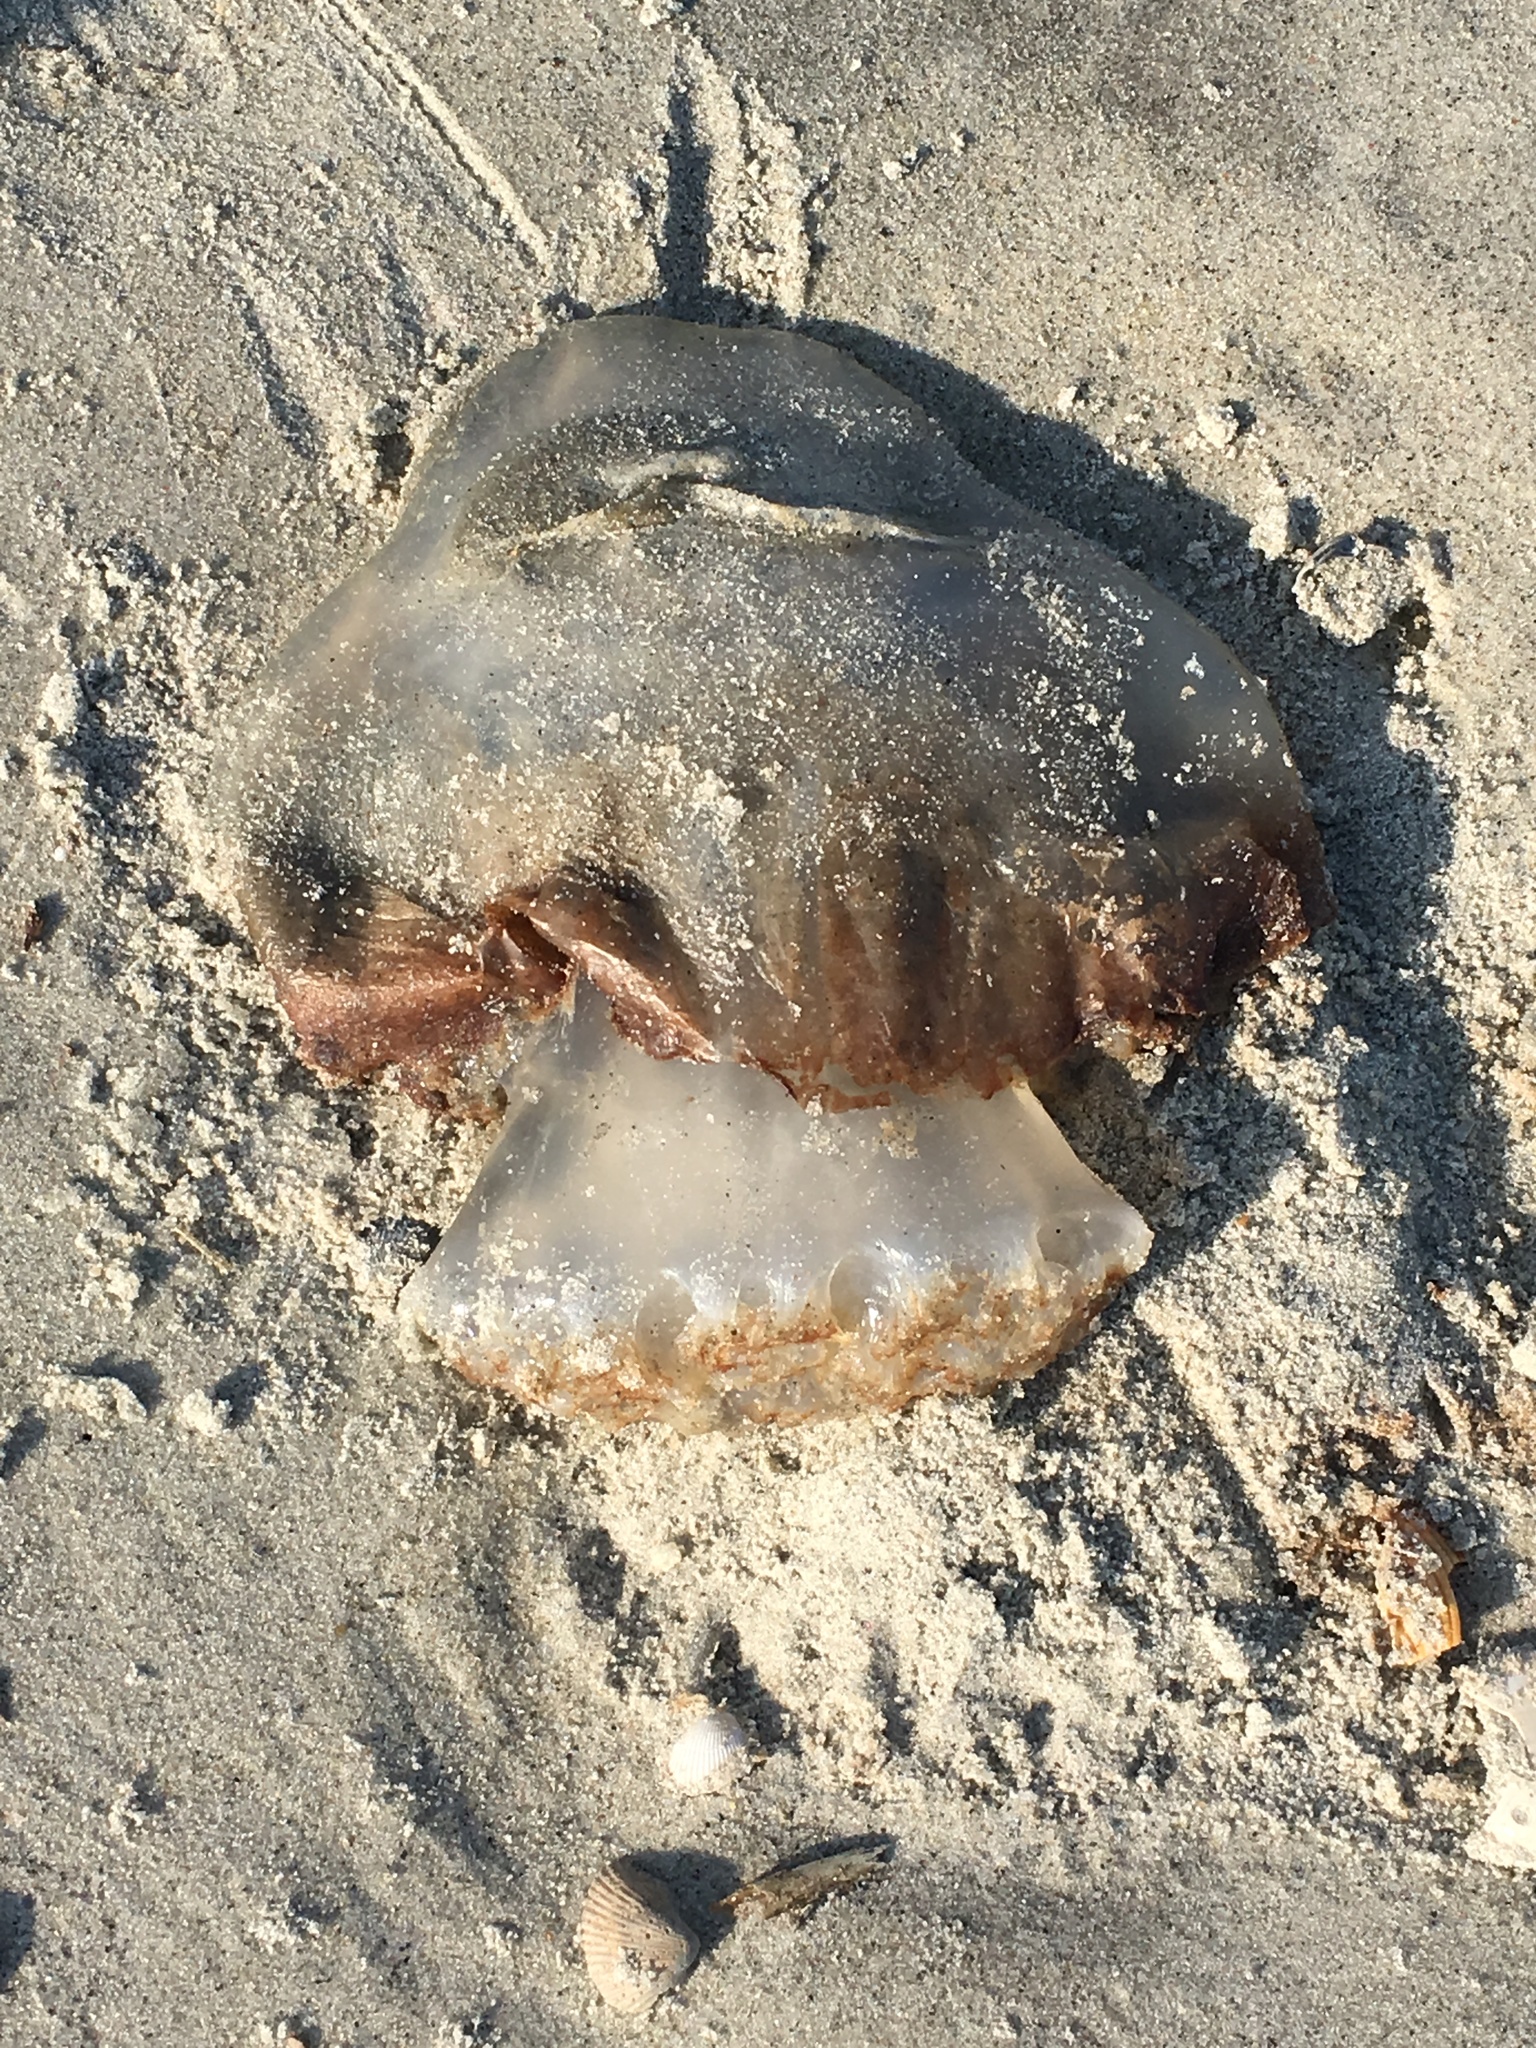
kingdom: Animalia
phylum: Cnidaria
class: Scyphozoa
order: Rhizostomeae
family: Stomolophidae
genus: Stomolophus
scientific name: Stomolophus meleagris
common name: Cabbagehead
